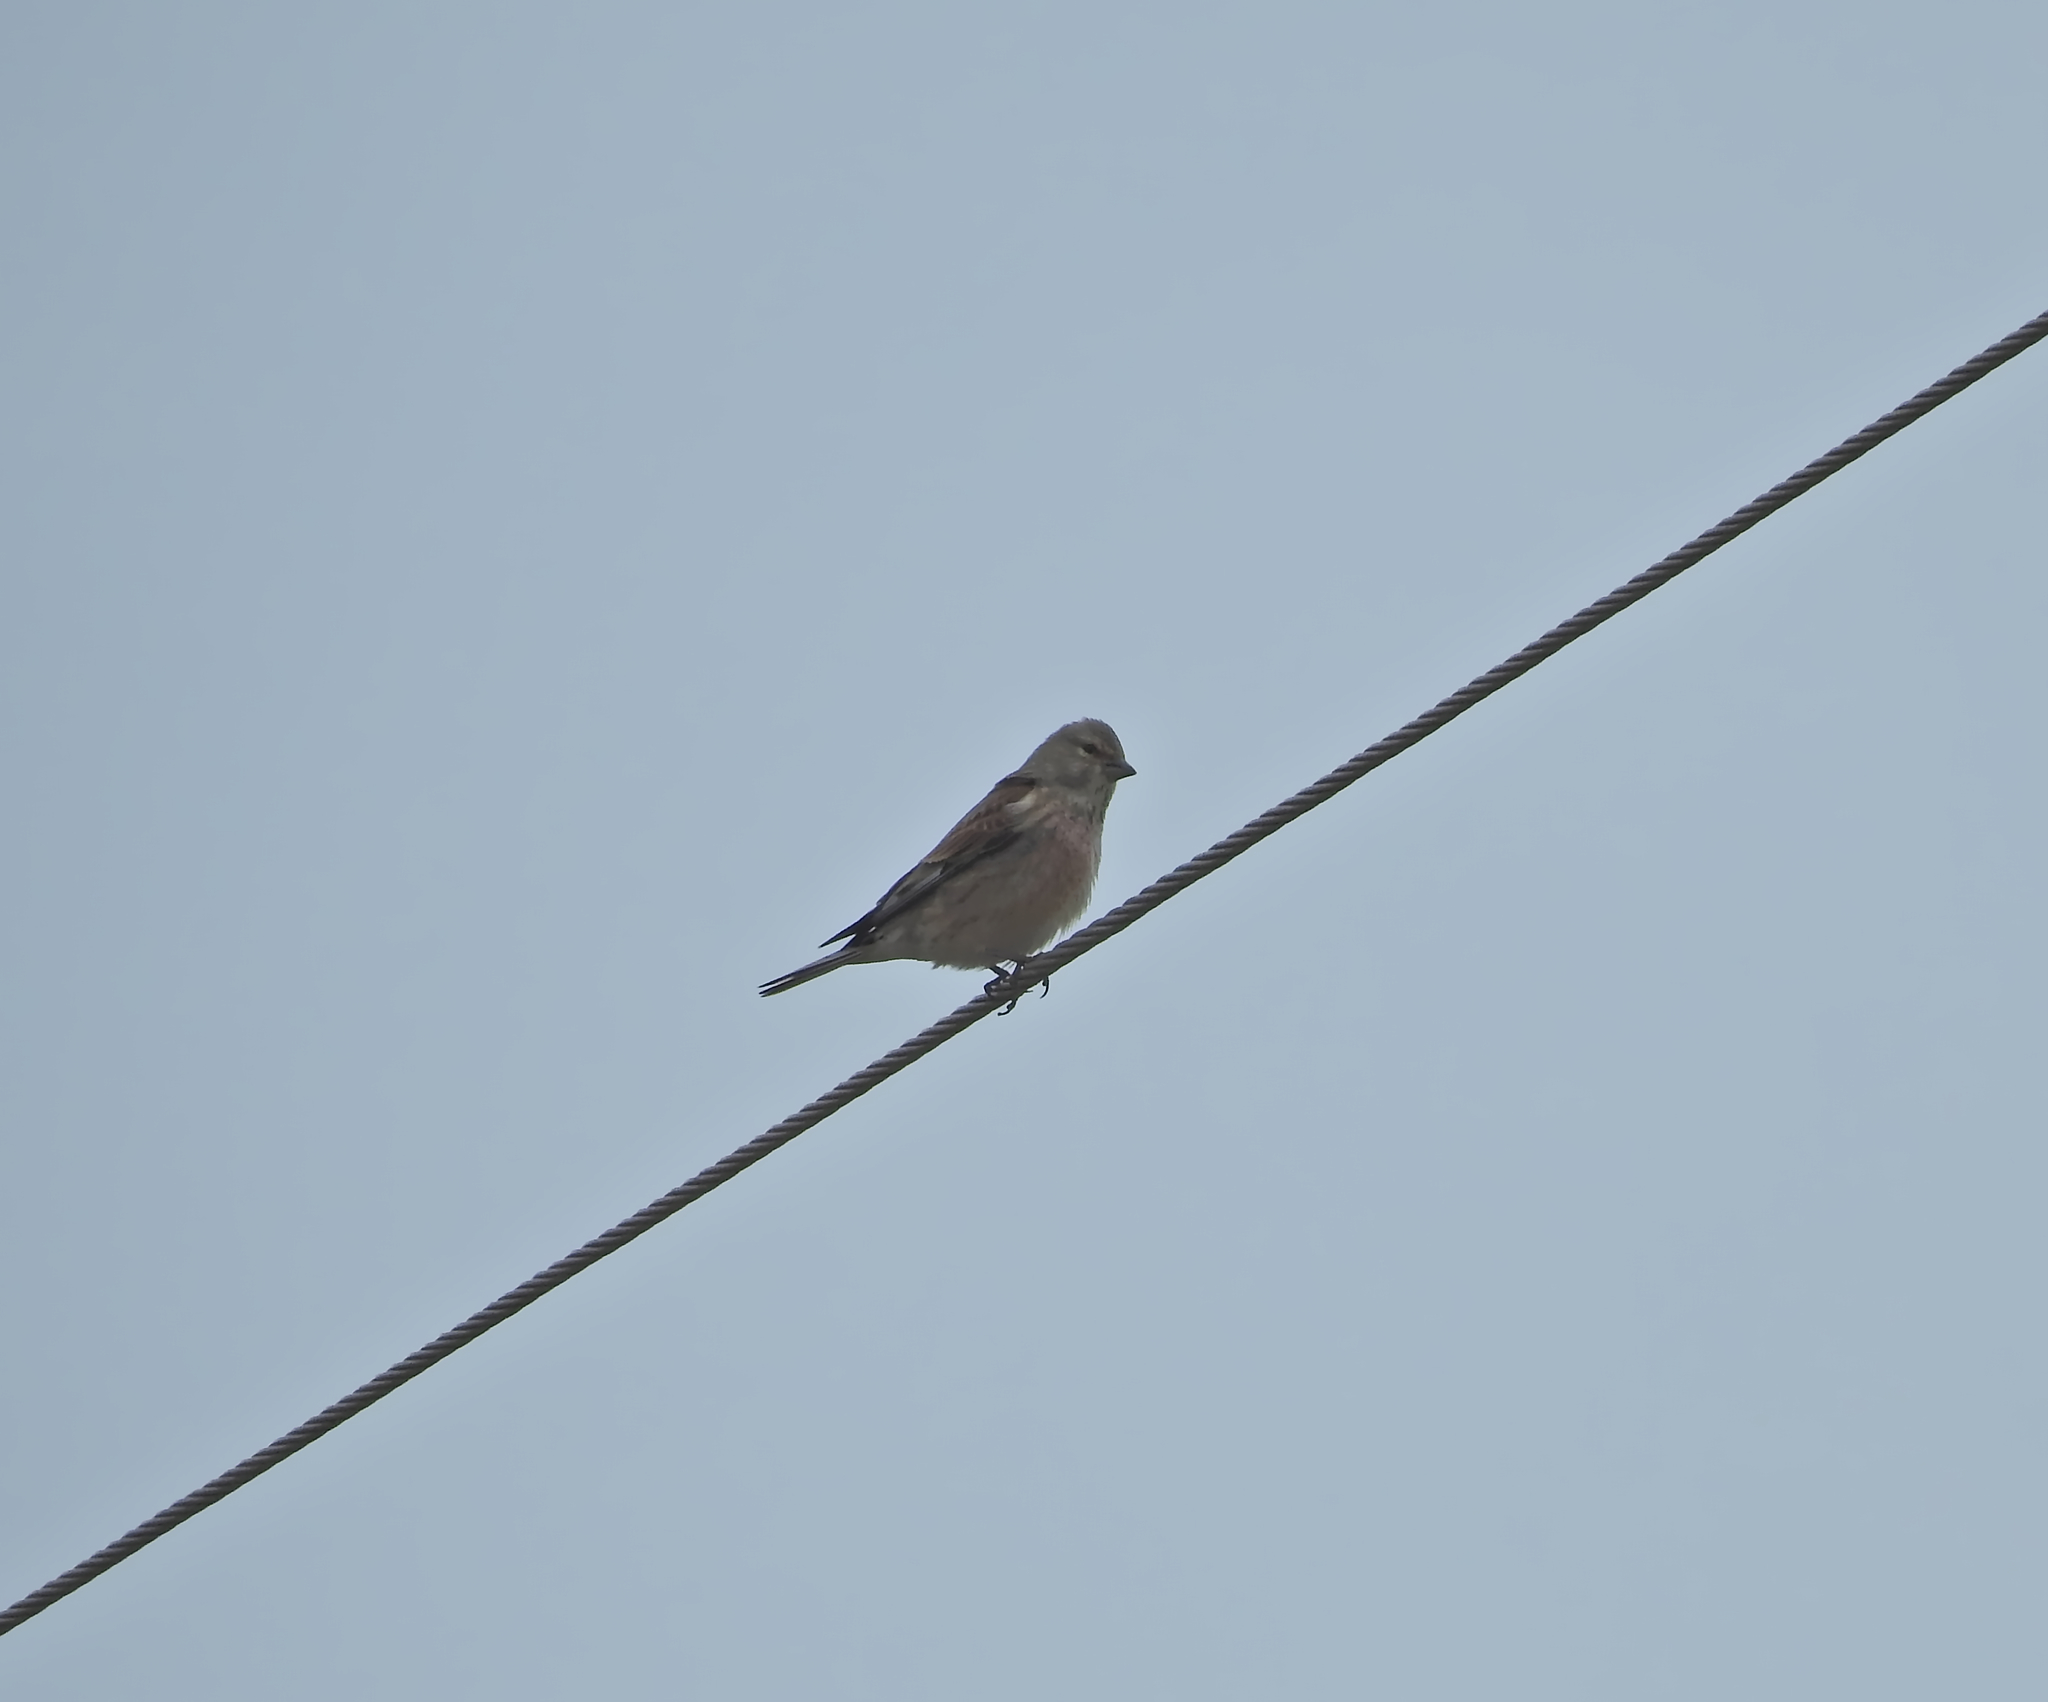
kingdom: Animalia
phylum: Chordata
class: Aves
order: Passeriformes
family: Fringillidae
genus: Linaria
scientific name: Linaria cannabina
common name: Common linnet
